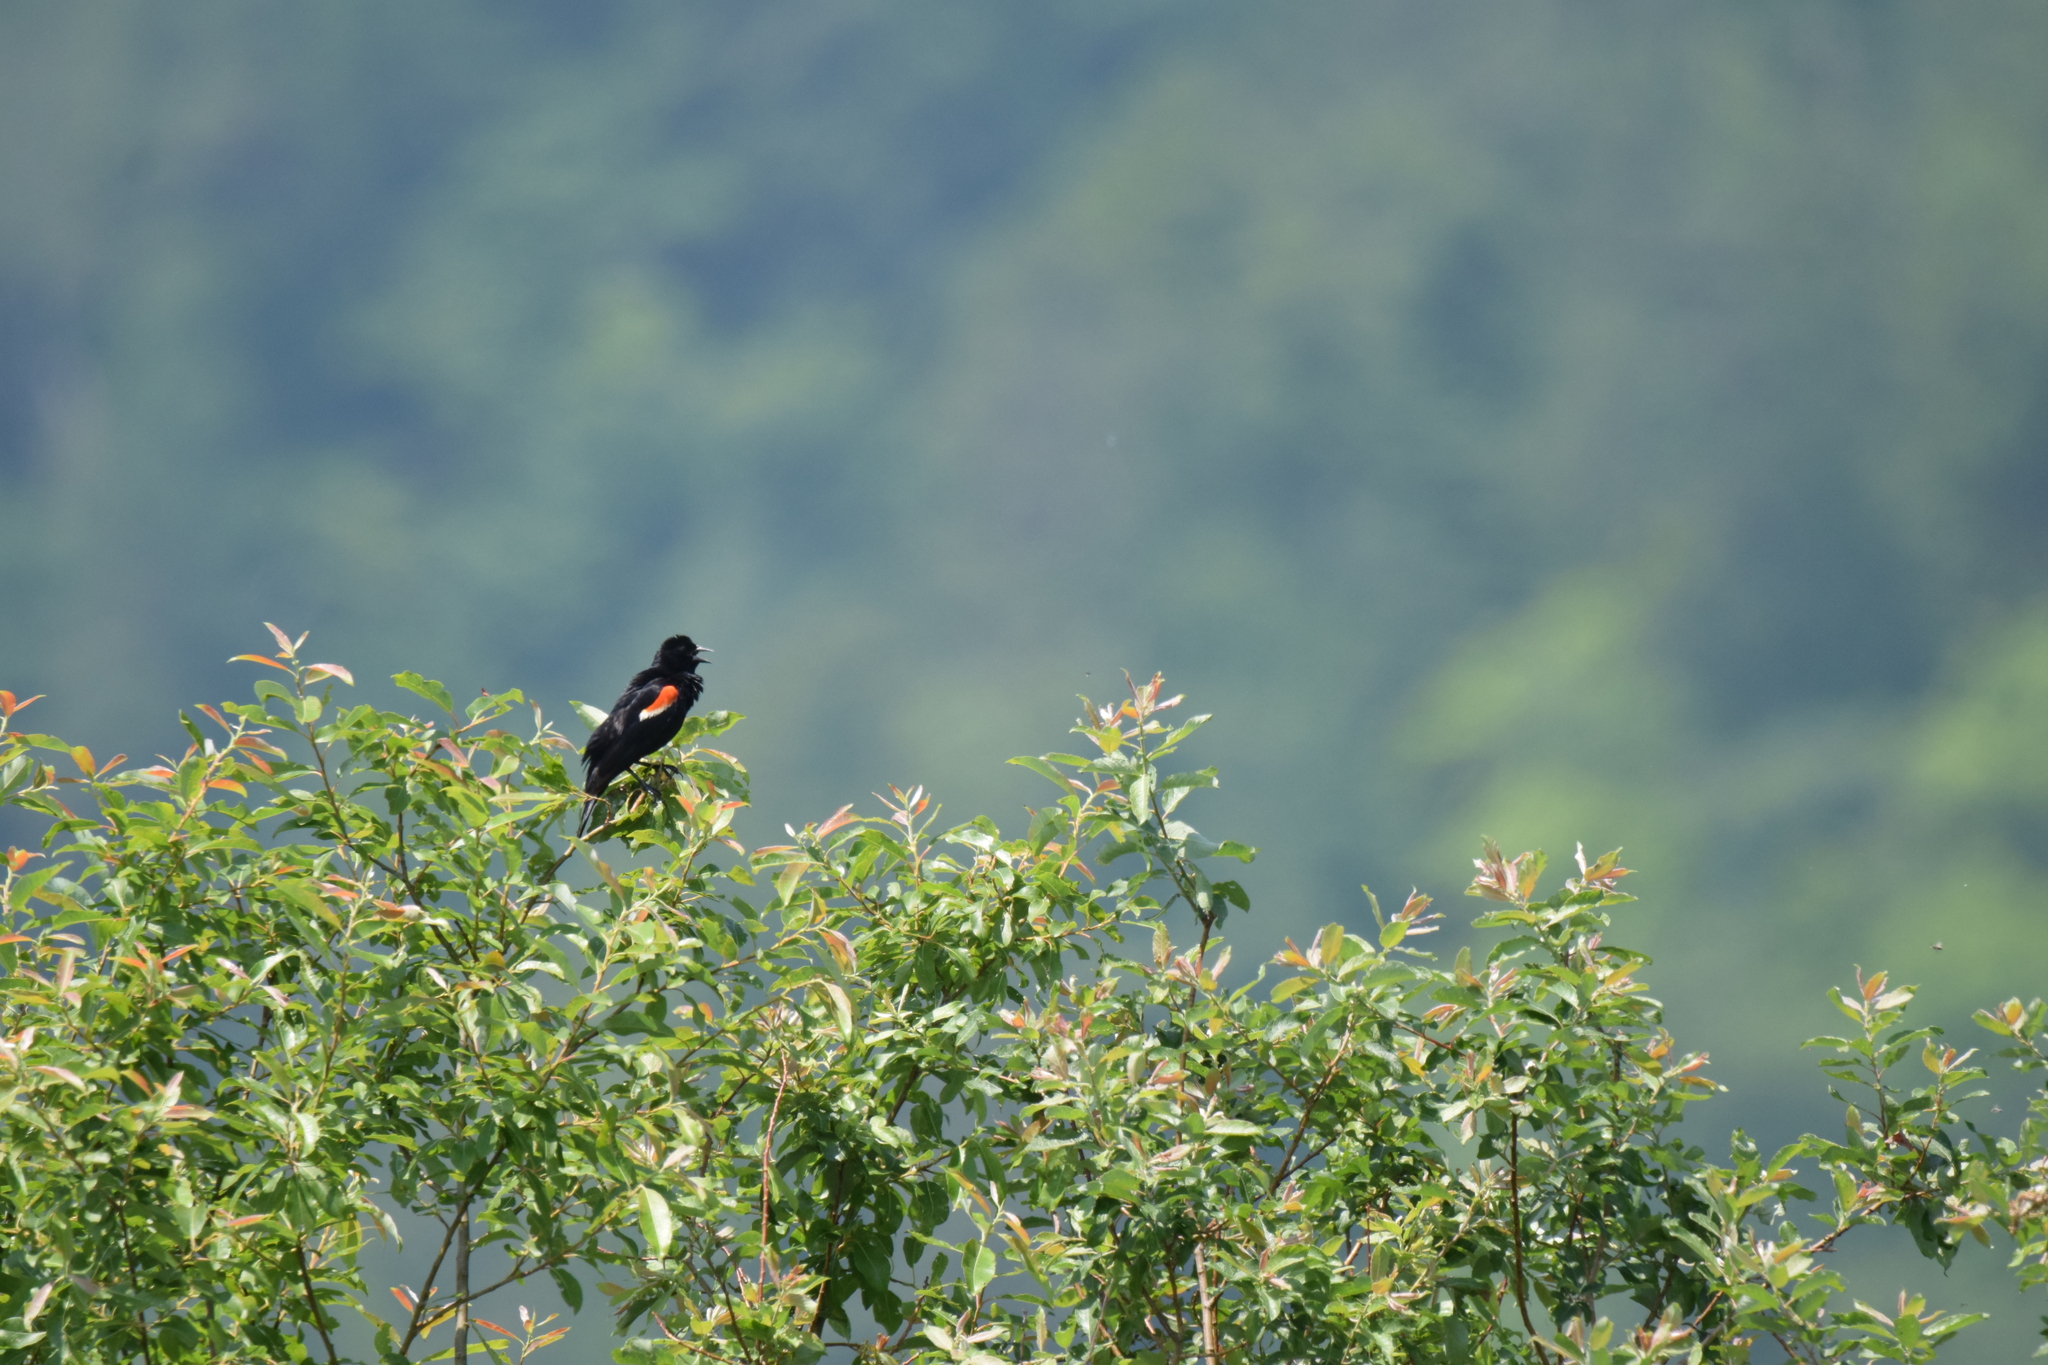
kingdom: Animalia
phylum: Chordata
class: Aves
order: Passeriformes
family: Icteridae
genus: Agelaius
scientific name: Agelaius phoeniceus
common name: Red-winged blackbird
